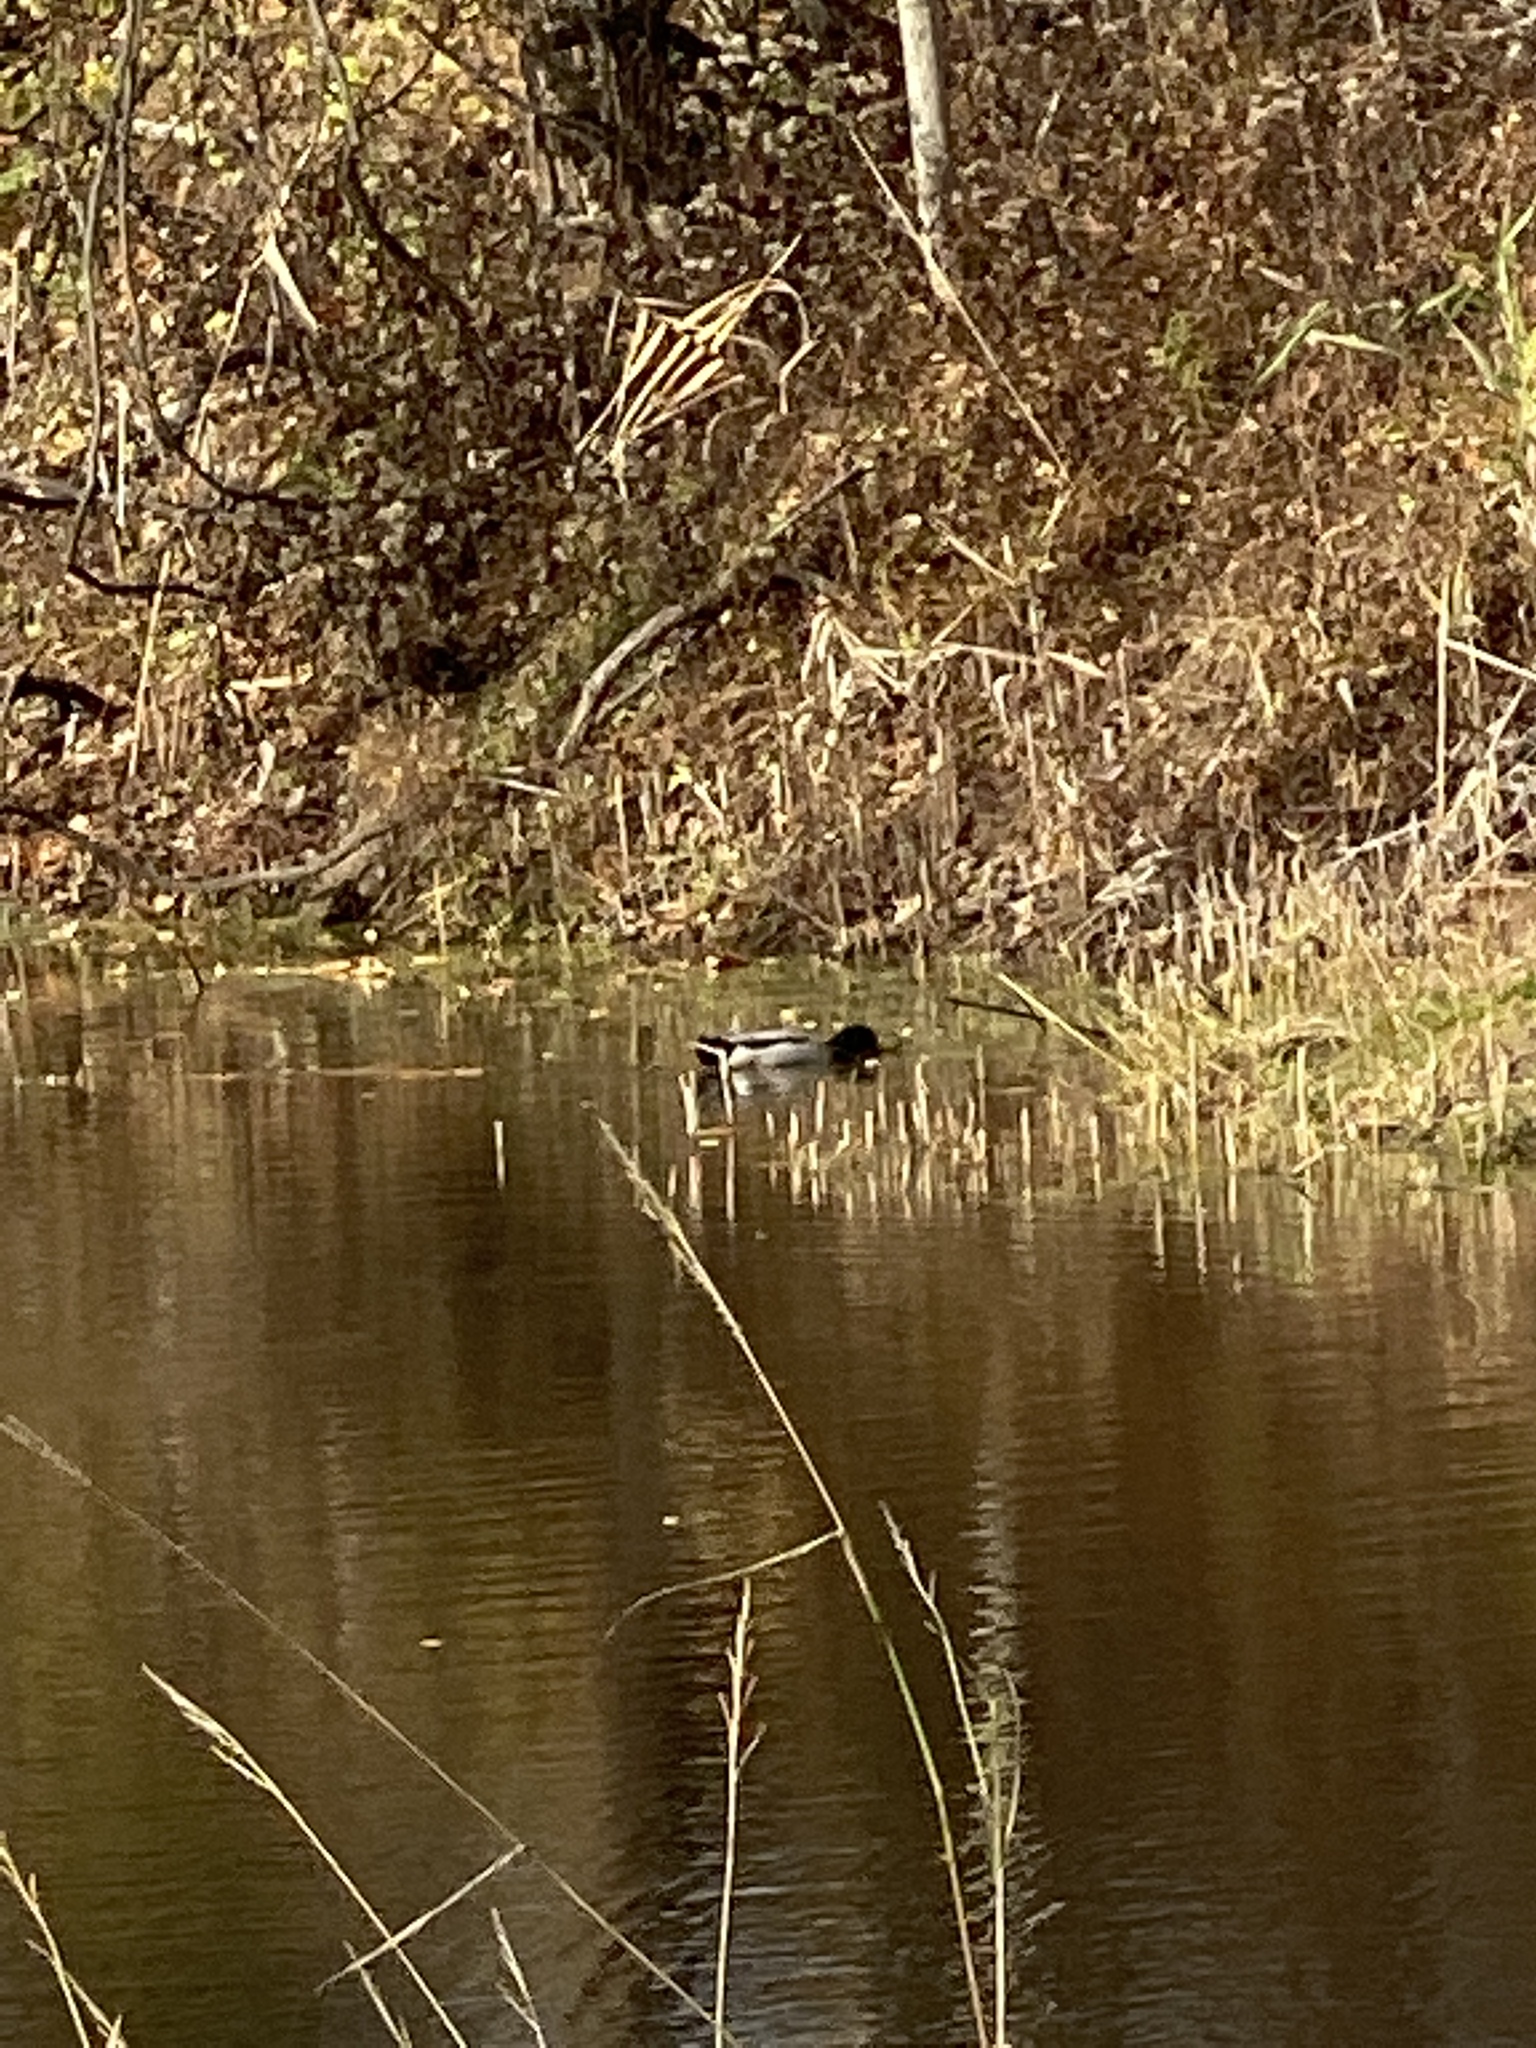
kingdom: Animalia
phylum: Chordata
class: Aves
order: Anseriformes
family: Anatidae
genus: Anas
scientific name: Anas platyrhynchos
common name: Mallard
